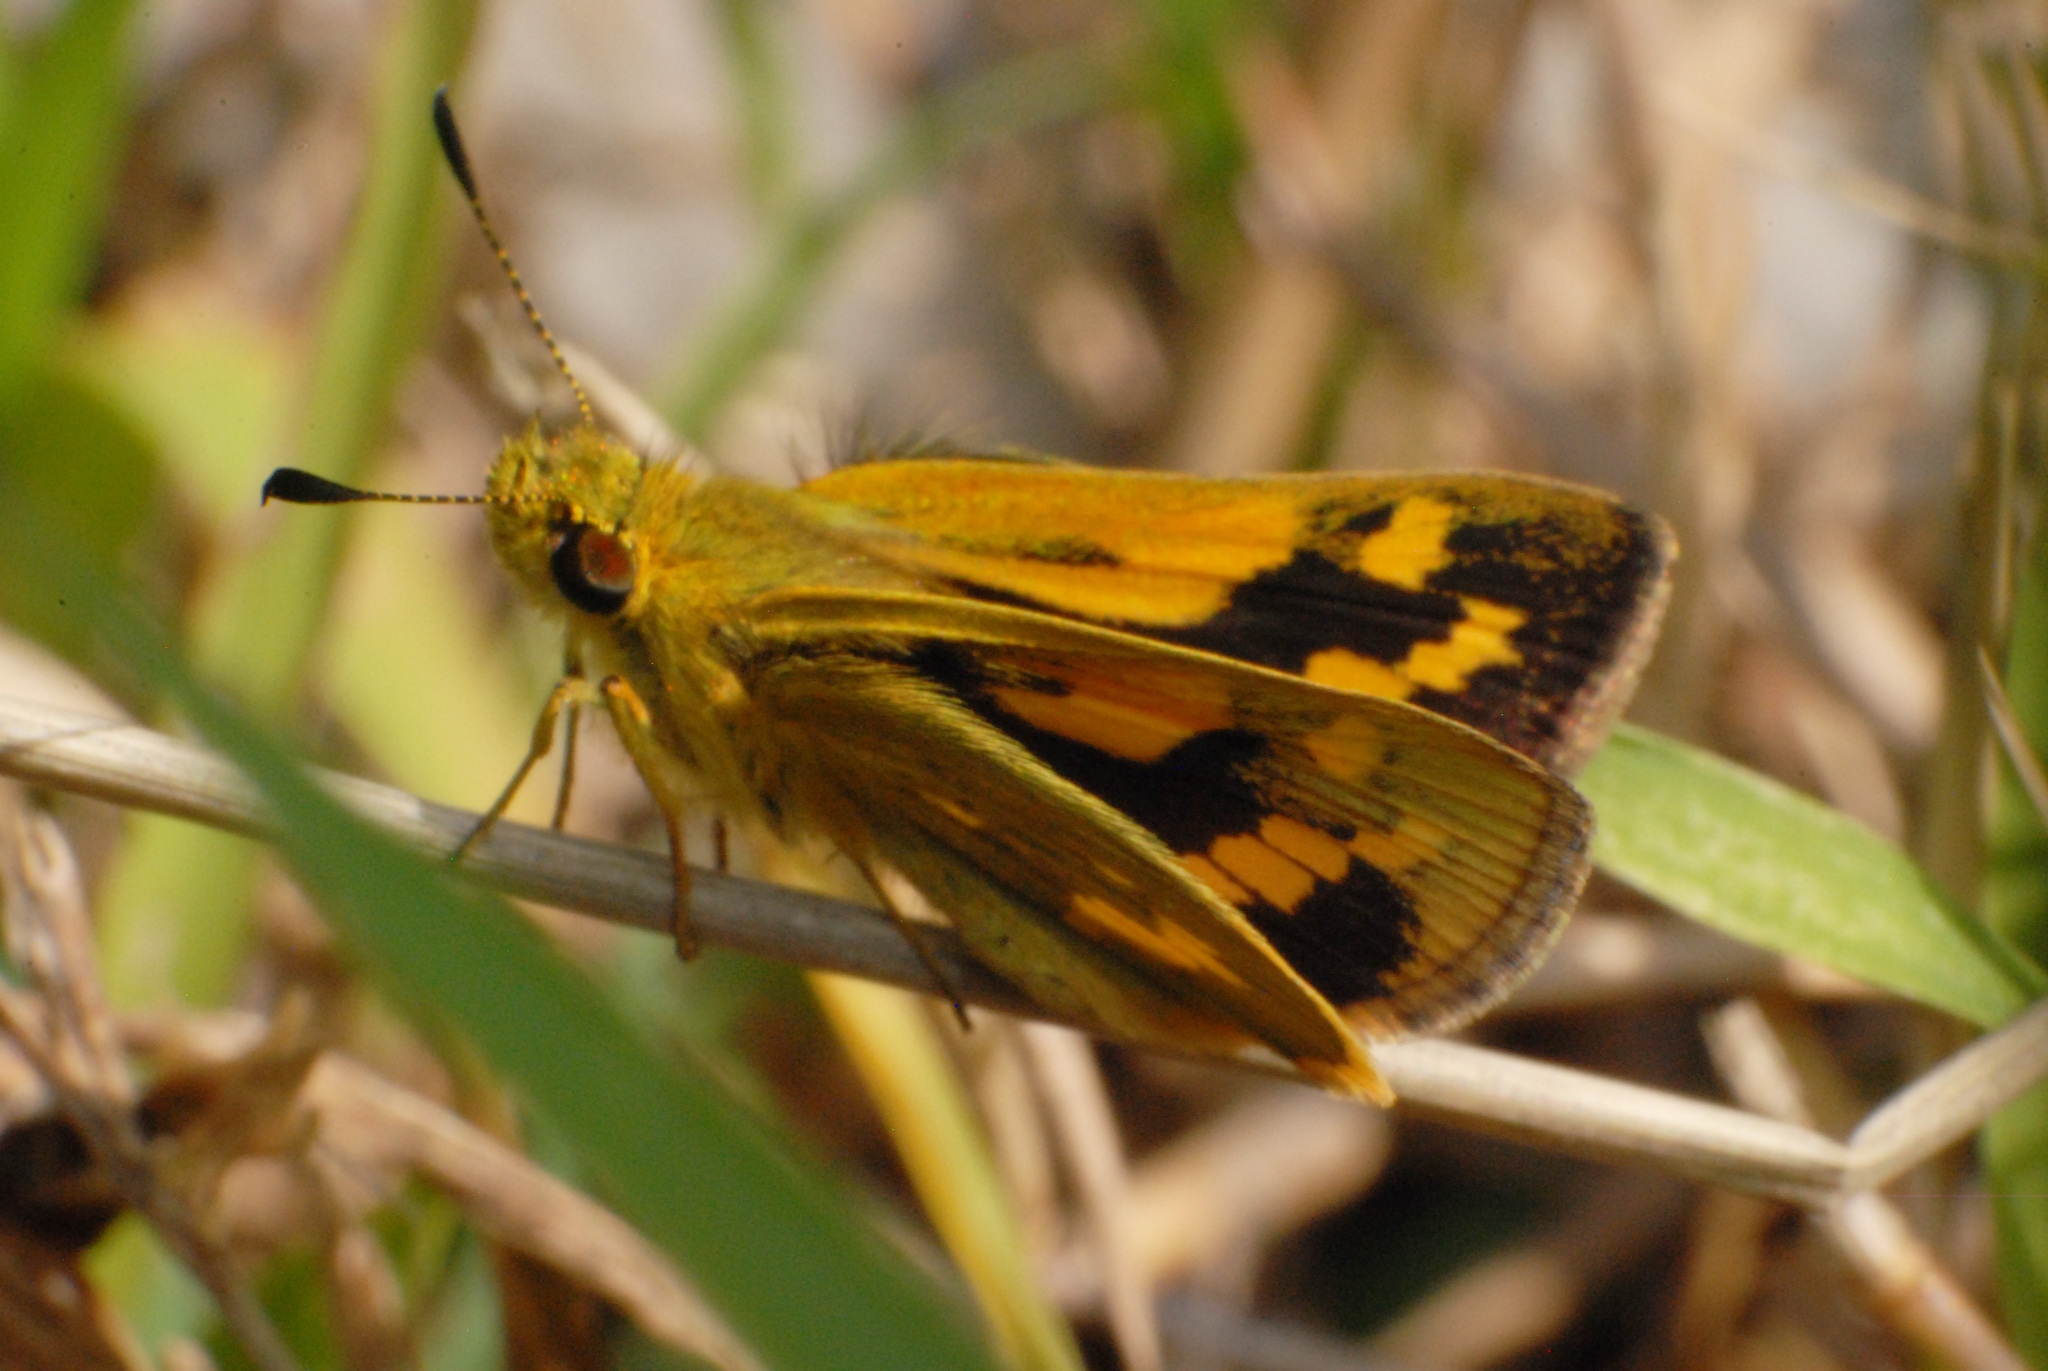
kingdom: Animalia
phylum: Arthropoda
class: Insecta
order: Lepidoptera
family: Hesperiidae
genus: Ocybadistes
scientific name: Ocybadistes walkeri
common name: Yellow-banded dart
